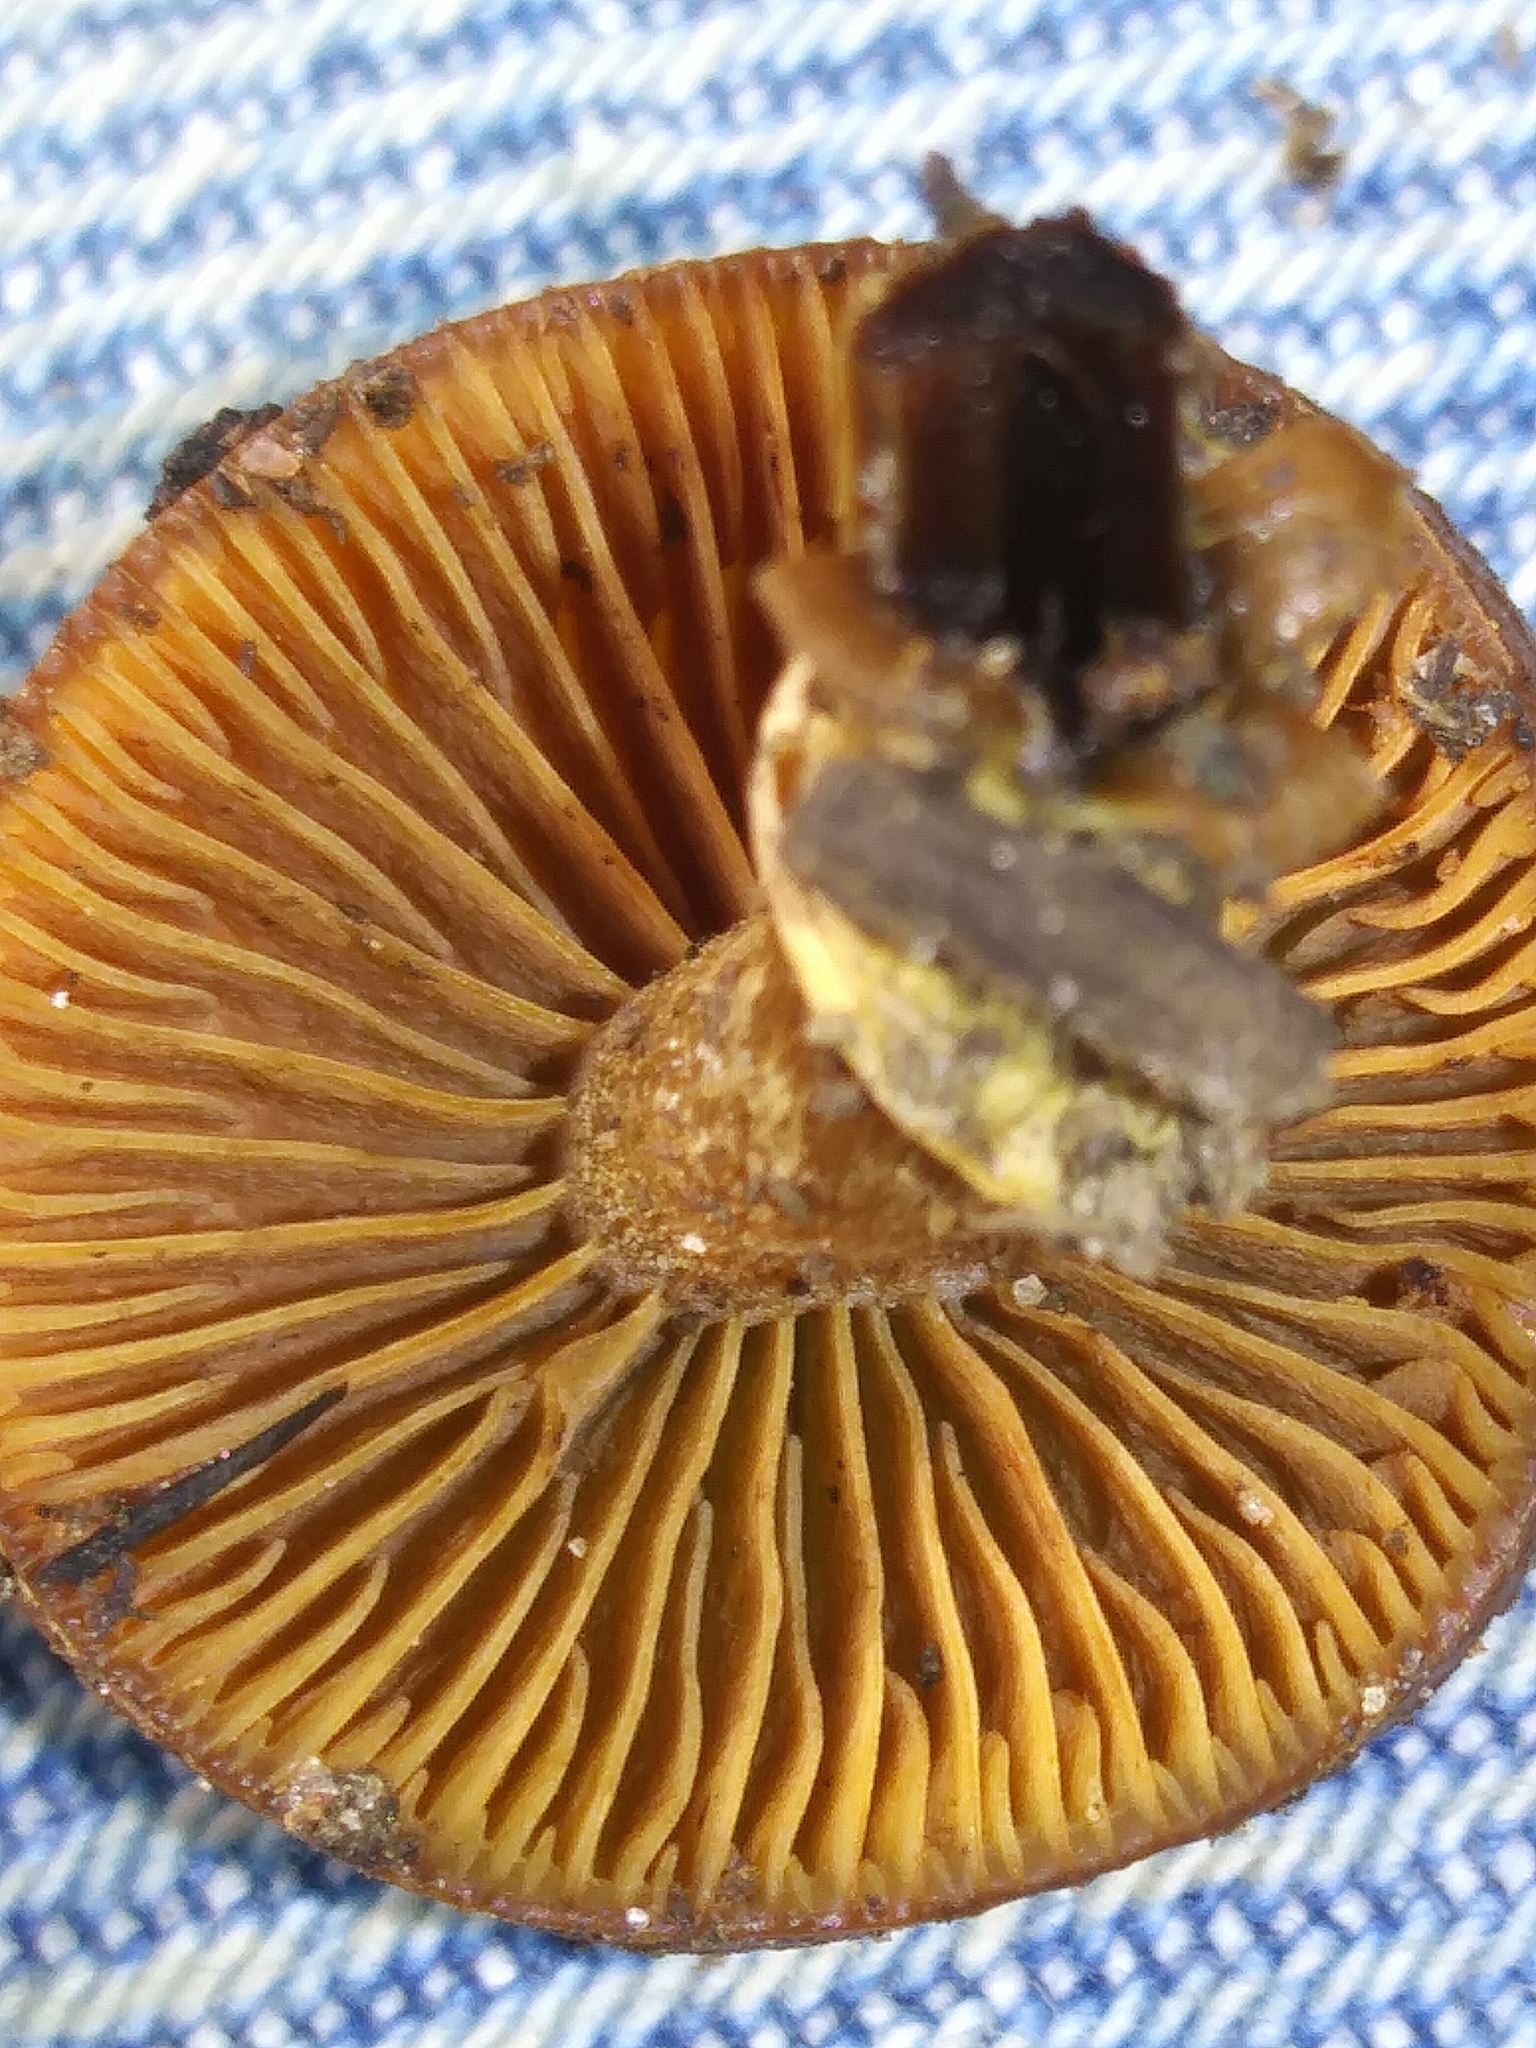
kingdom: Fungi
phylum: Basidiomycota
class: Agaricomycetes
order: Agaricales
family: Hymenogastraceae
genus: Galerina
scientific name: Galerina marginata
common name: Funeral bell
